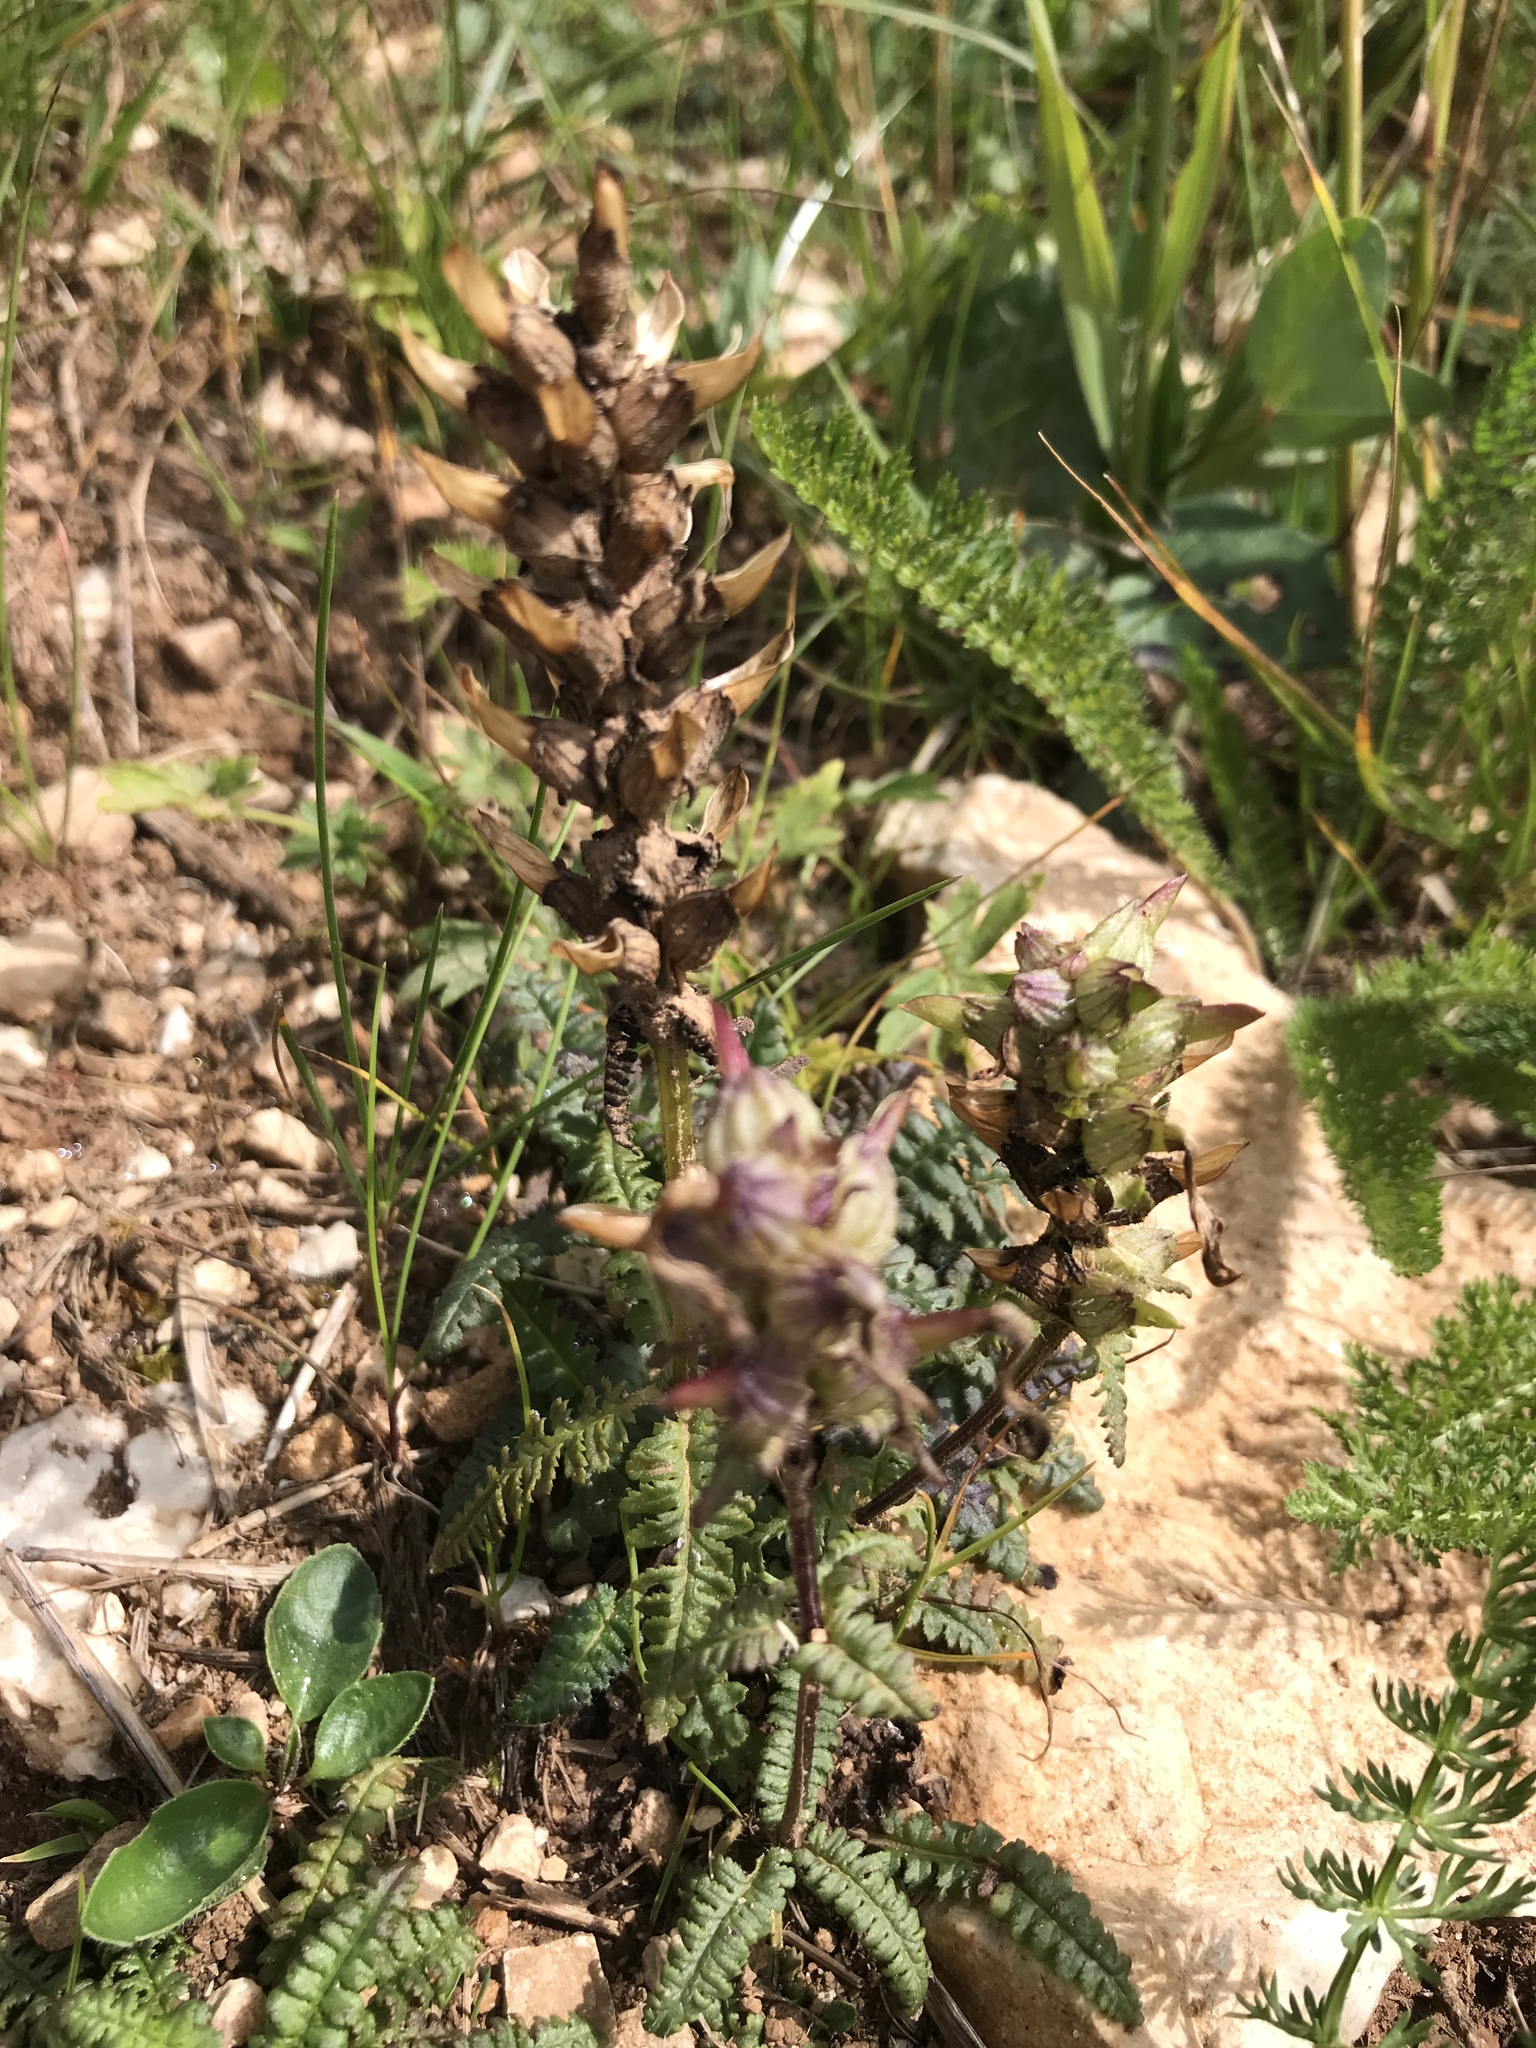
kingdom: Plantae
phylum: Tracheophyta
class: Magnoliopsida
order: Lamiales
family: Orobanchaceae
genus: Pedicularis
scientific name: Pedicularis verticillata
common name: Whorled lousewort
